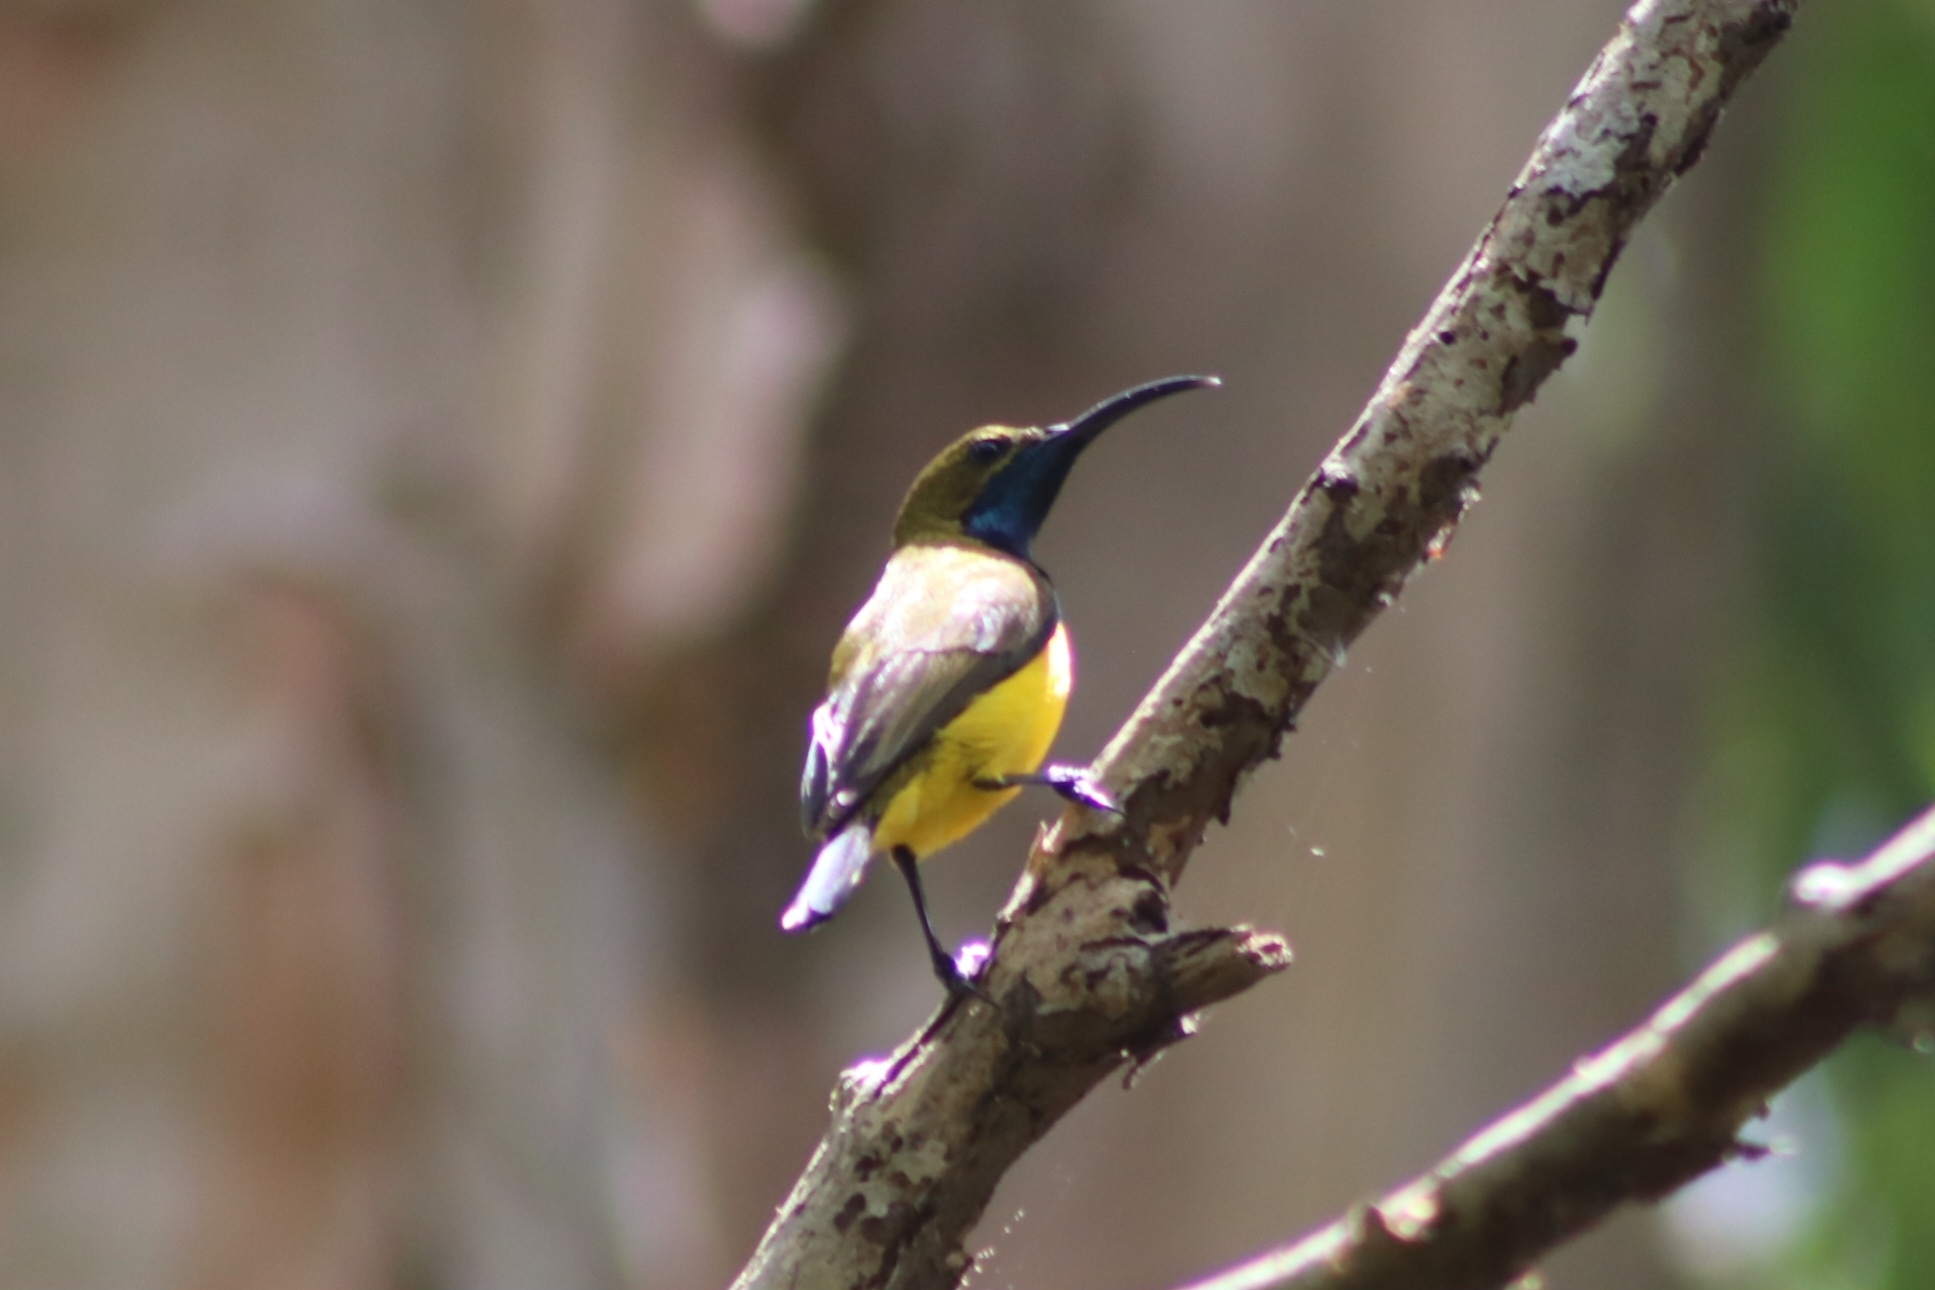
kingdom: Animalia
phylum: Chordata
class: Aves
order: Passeriformes
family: Nectariniidae
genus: Cinnyris
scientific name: Cinnyris
